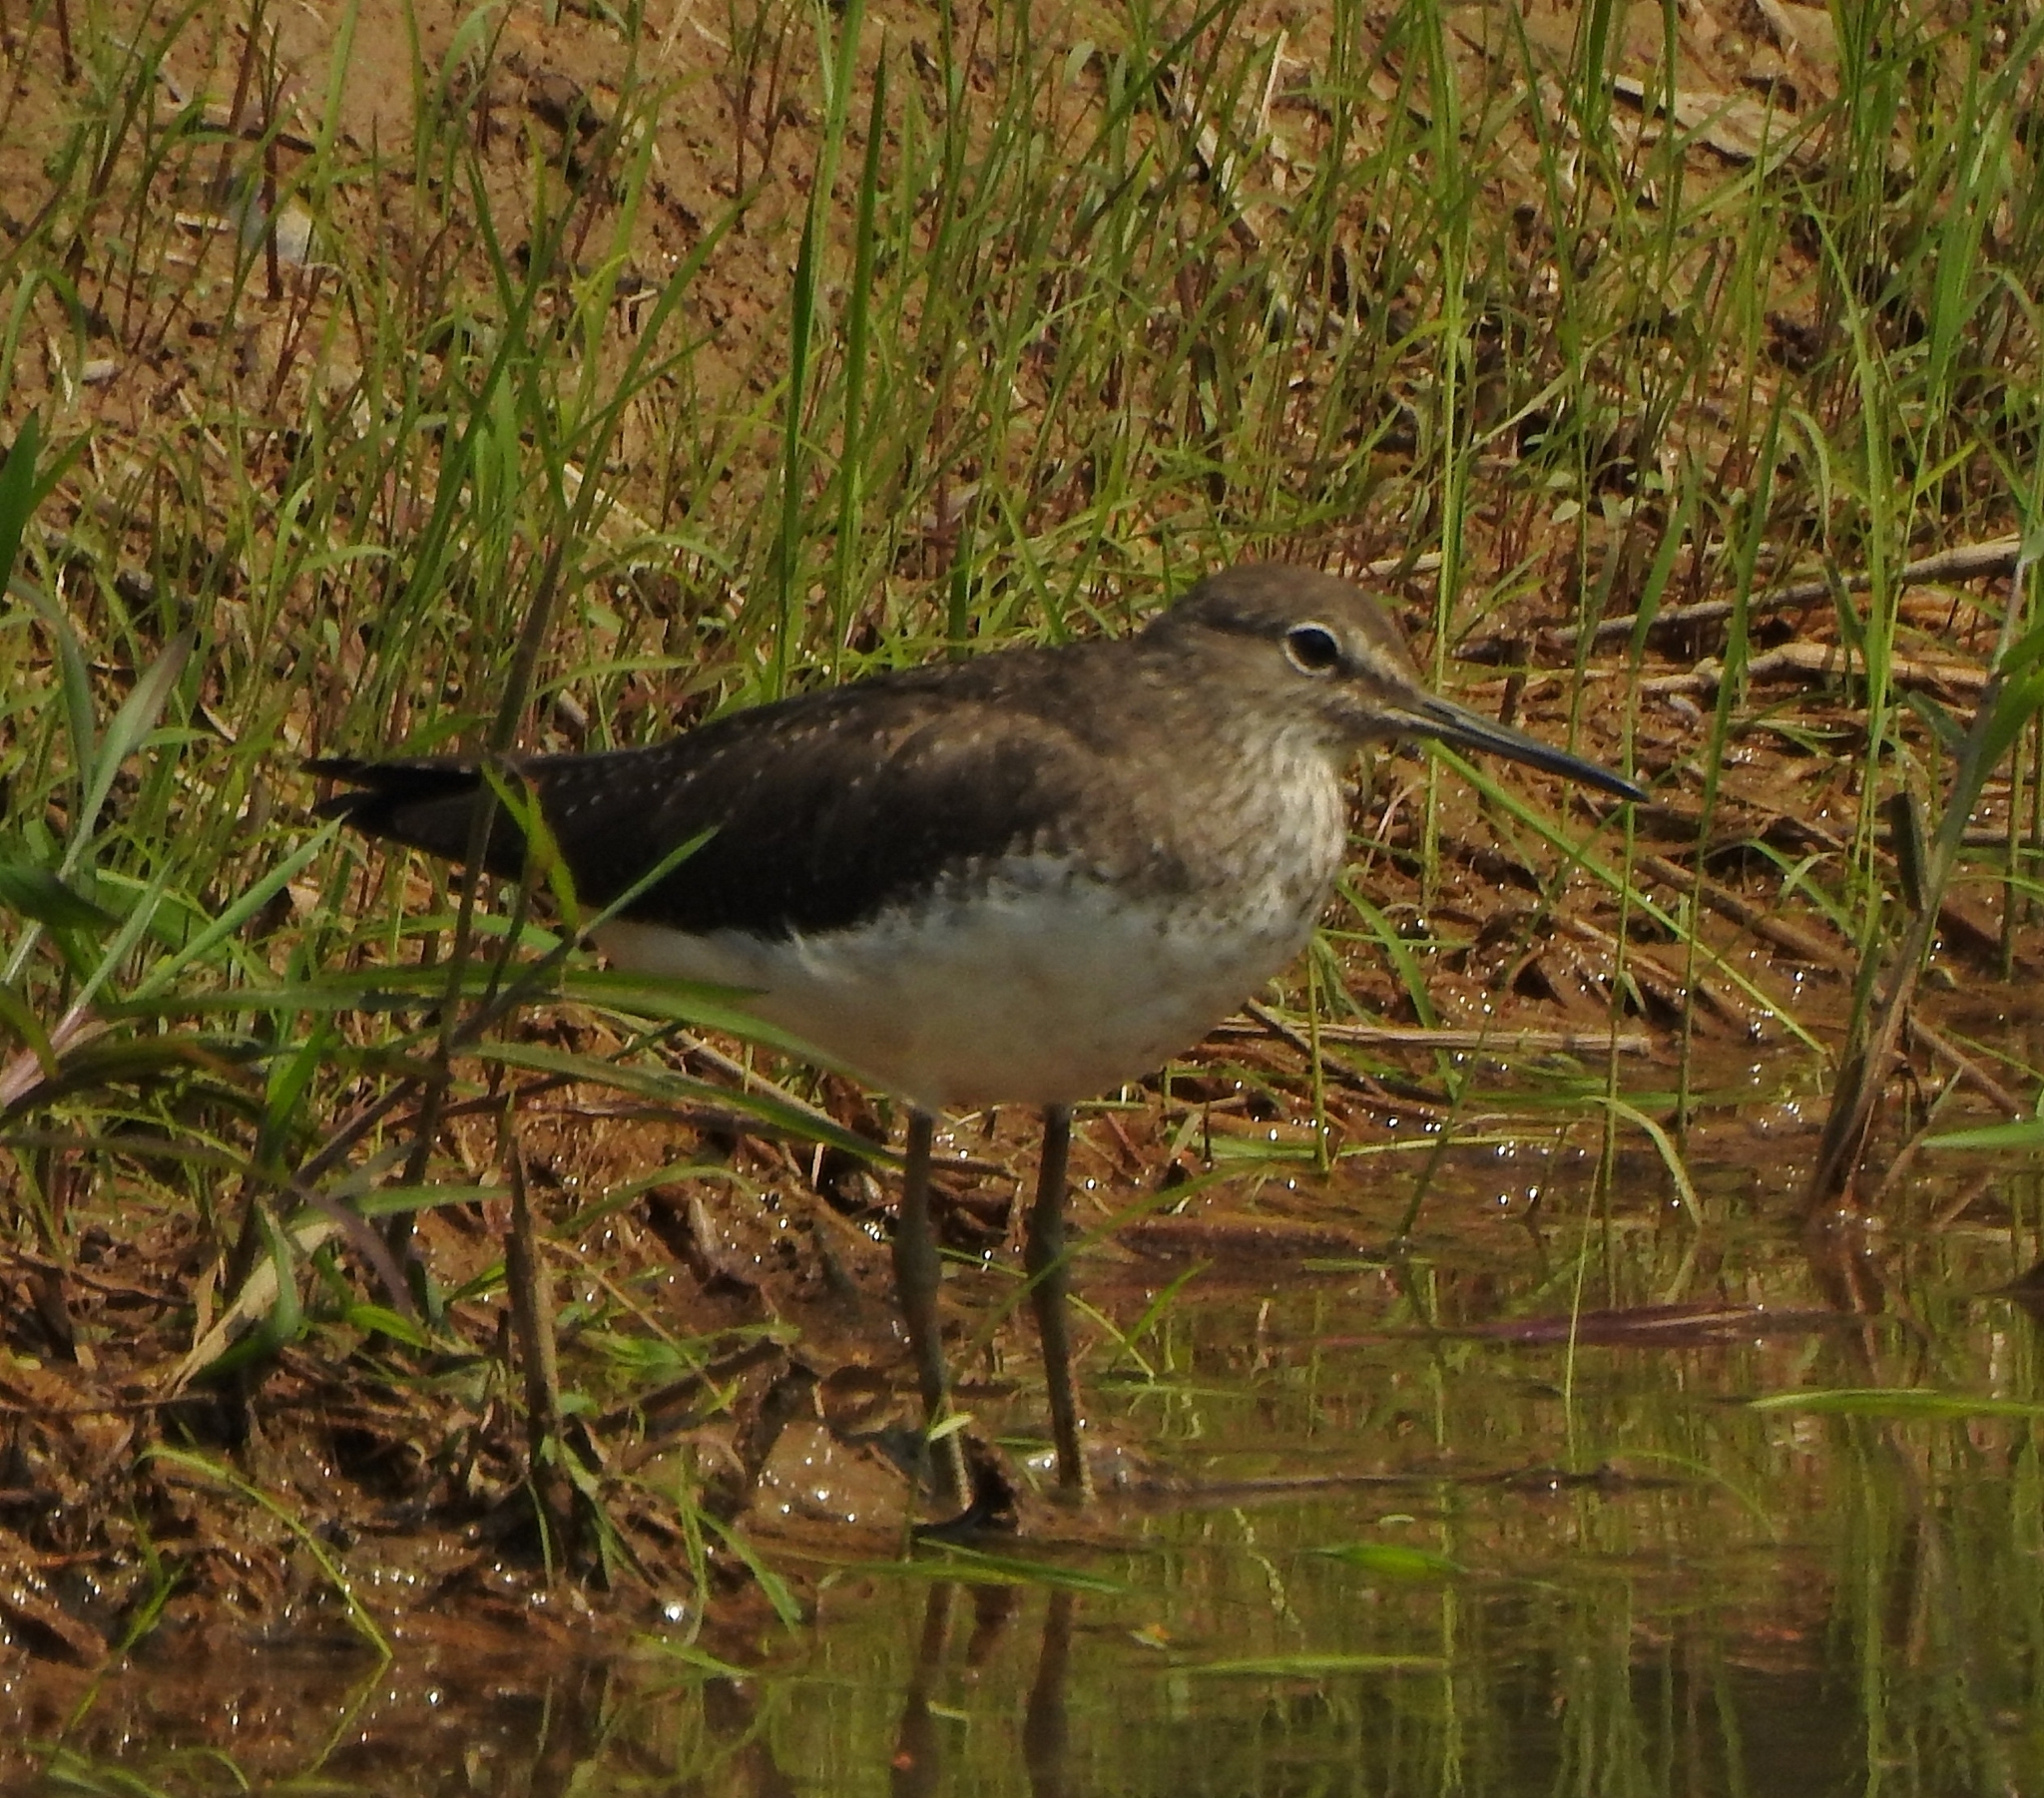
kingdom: Animalia
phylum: Chordata
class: Aves
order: Charadriiformes
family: Scolopacidae
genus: Tringa
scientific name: Tringa ochropus
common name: Green sandpiper
